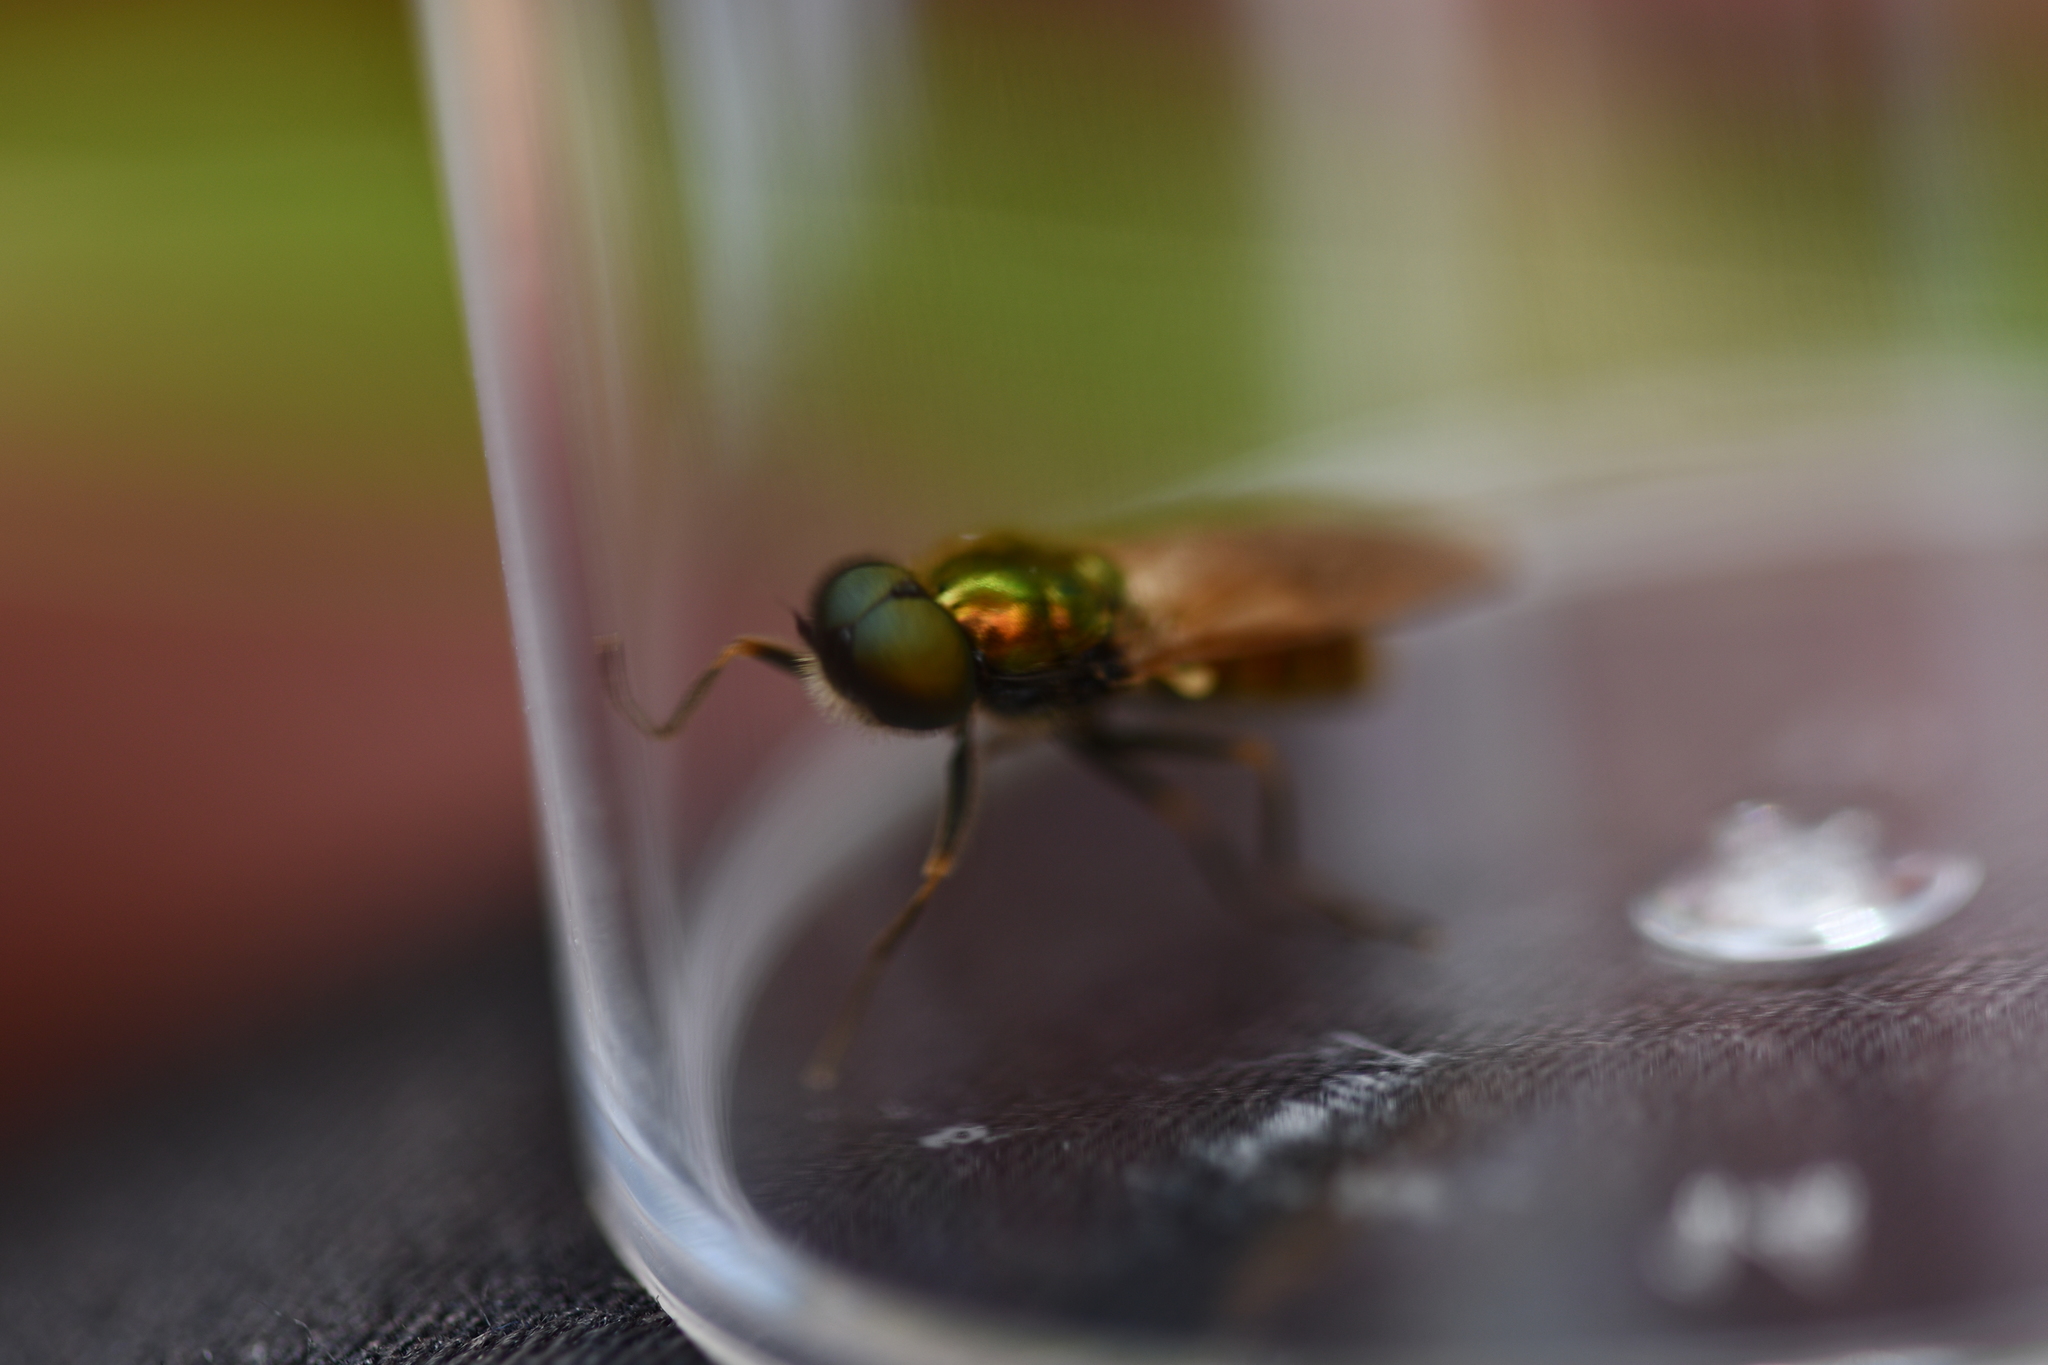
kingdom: Animalia
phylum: Arthropoda
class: Insecta
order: Diptera
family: Stratiomyidae
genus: Chloromyia
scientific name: Chloromyia formosa
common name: Soldier fly
